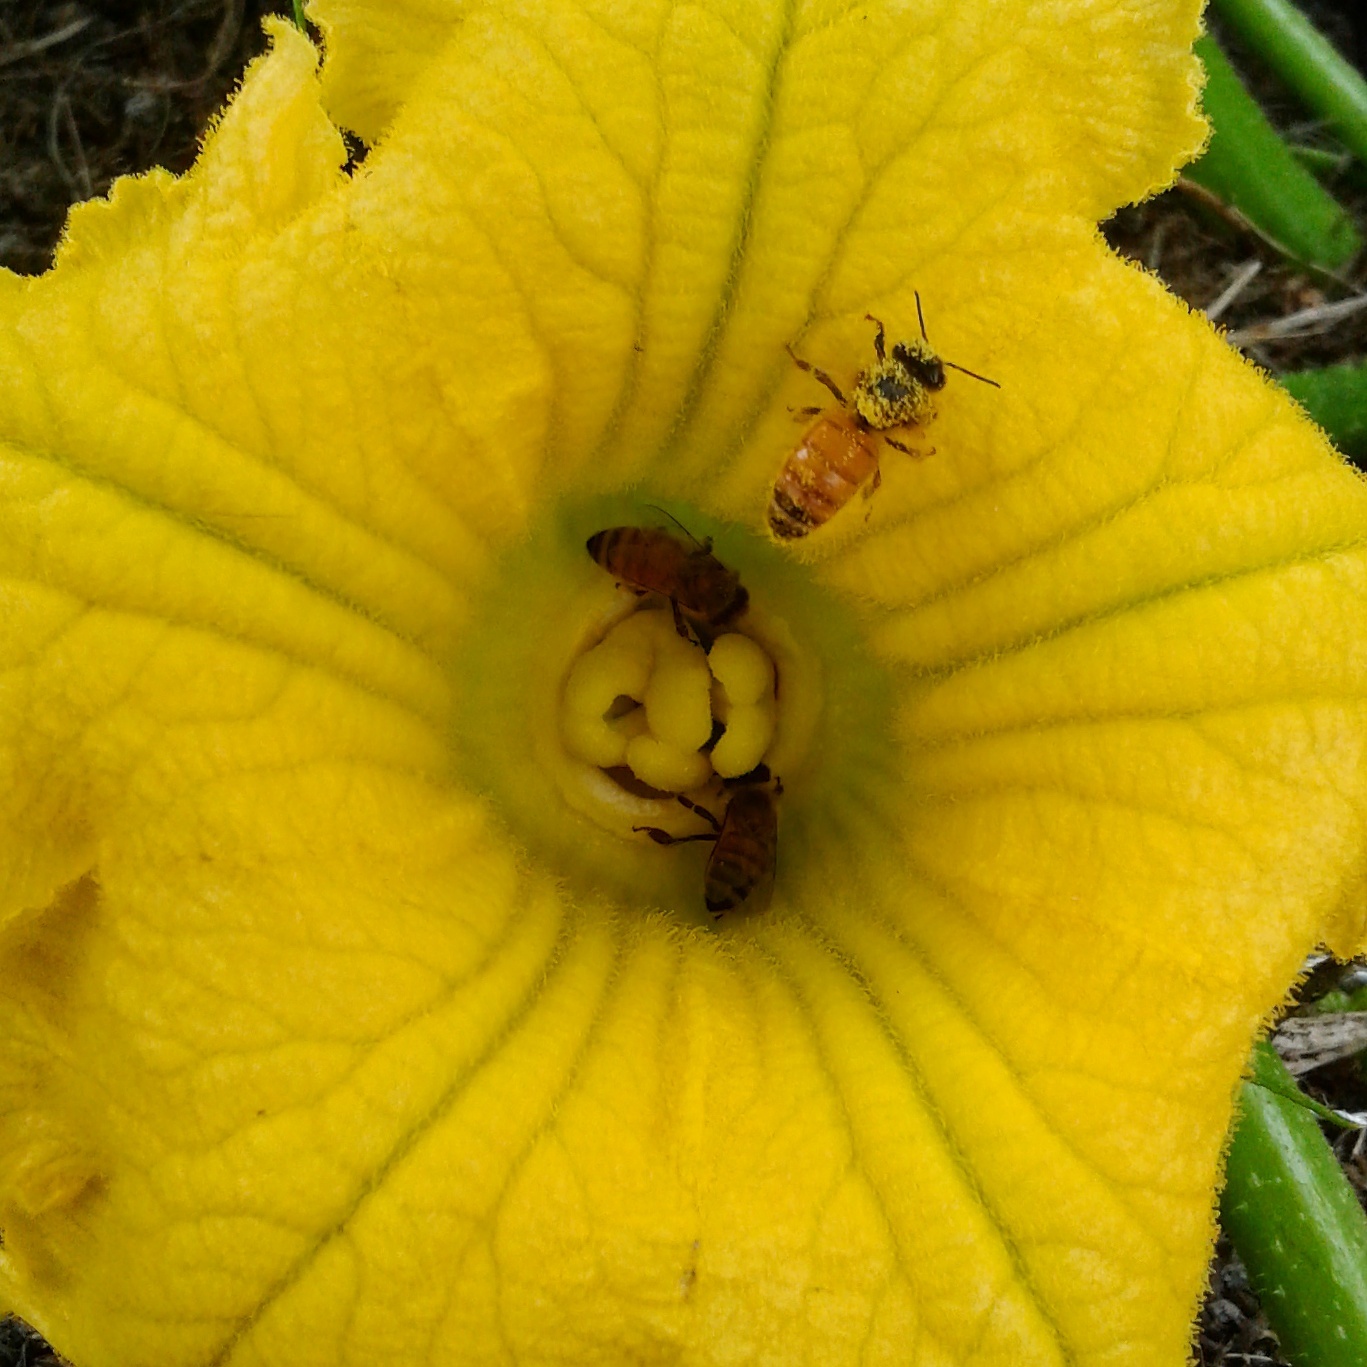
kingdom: Animalia
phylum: Arthropoda
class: Insecta
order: Hymenoptera
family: Apidae
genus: Apis
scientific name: Apis mellifera
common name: Honey bee
